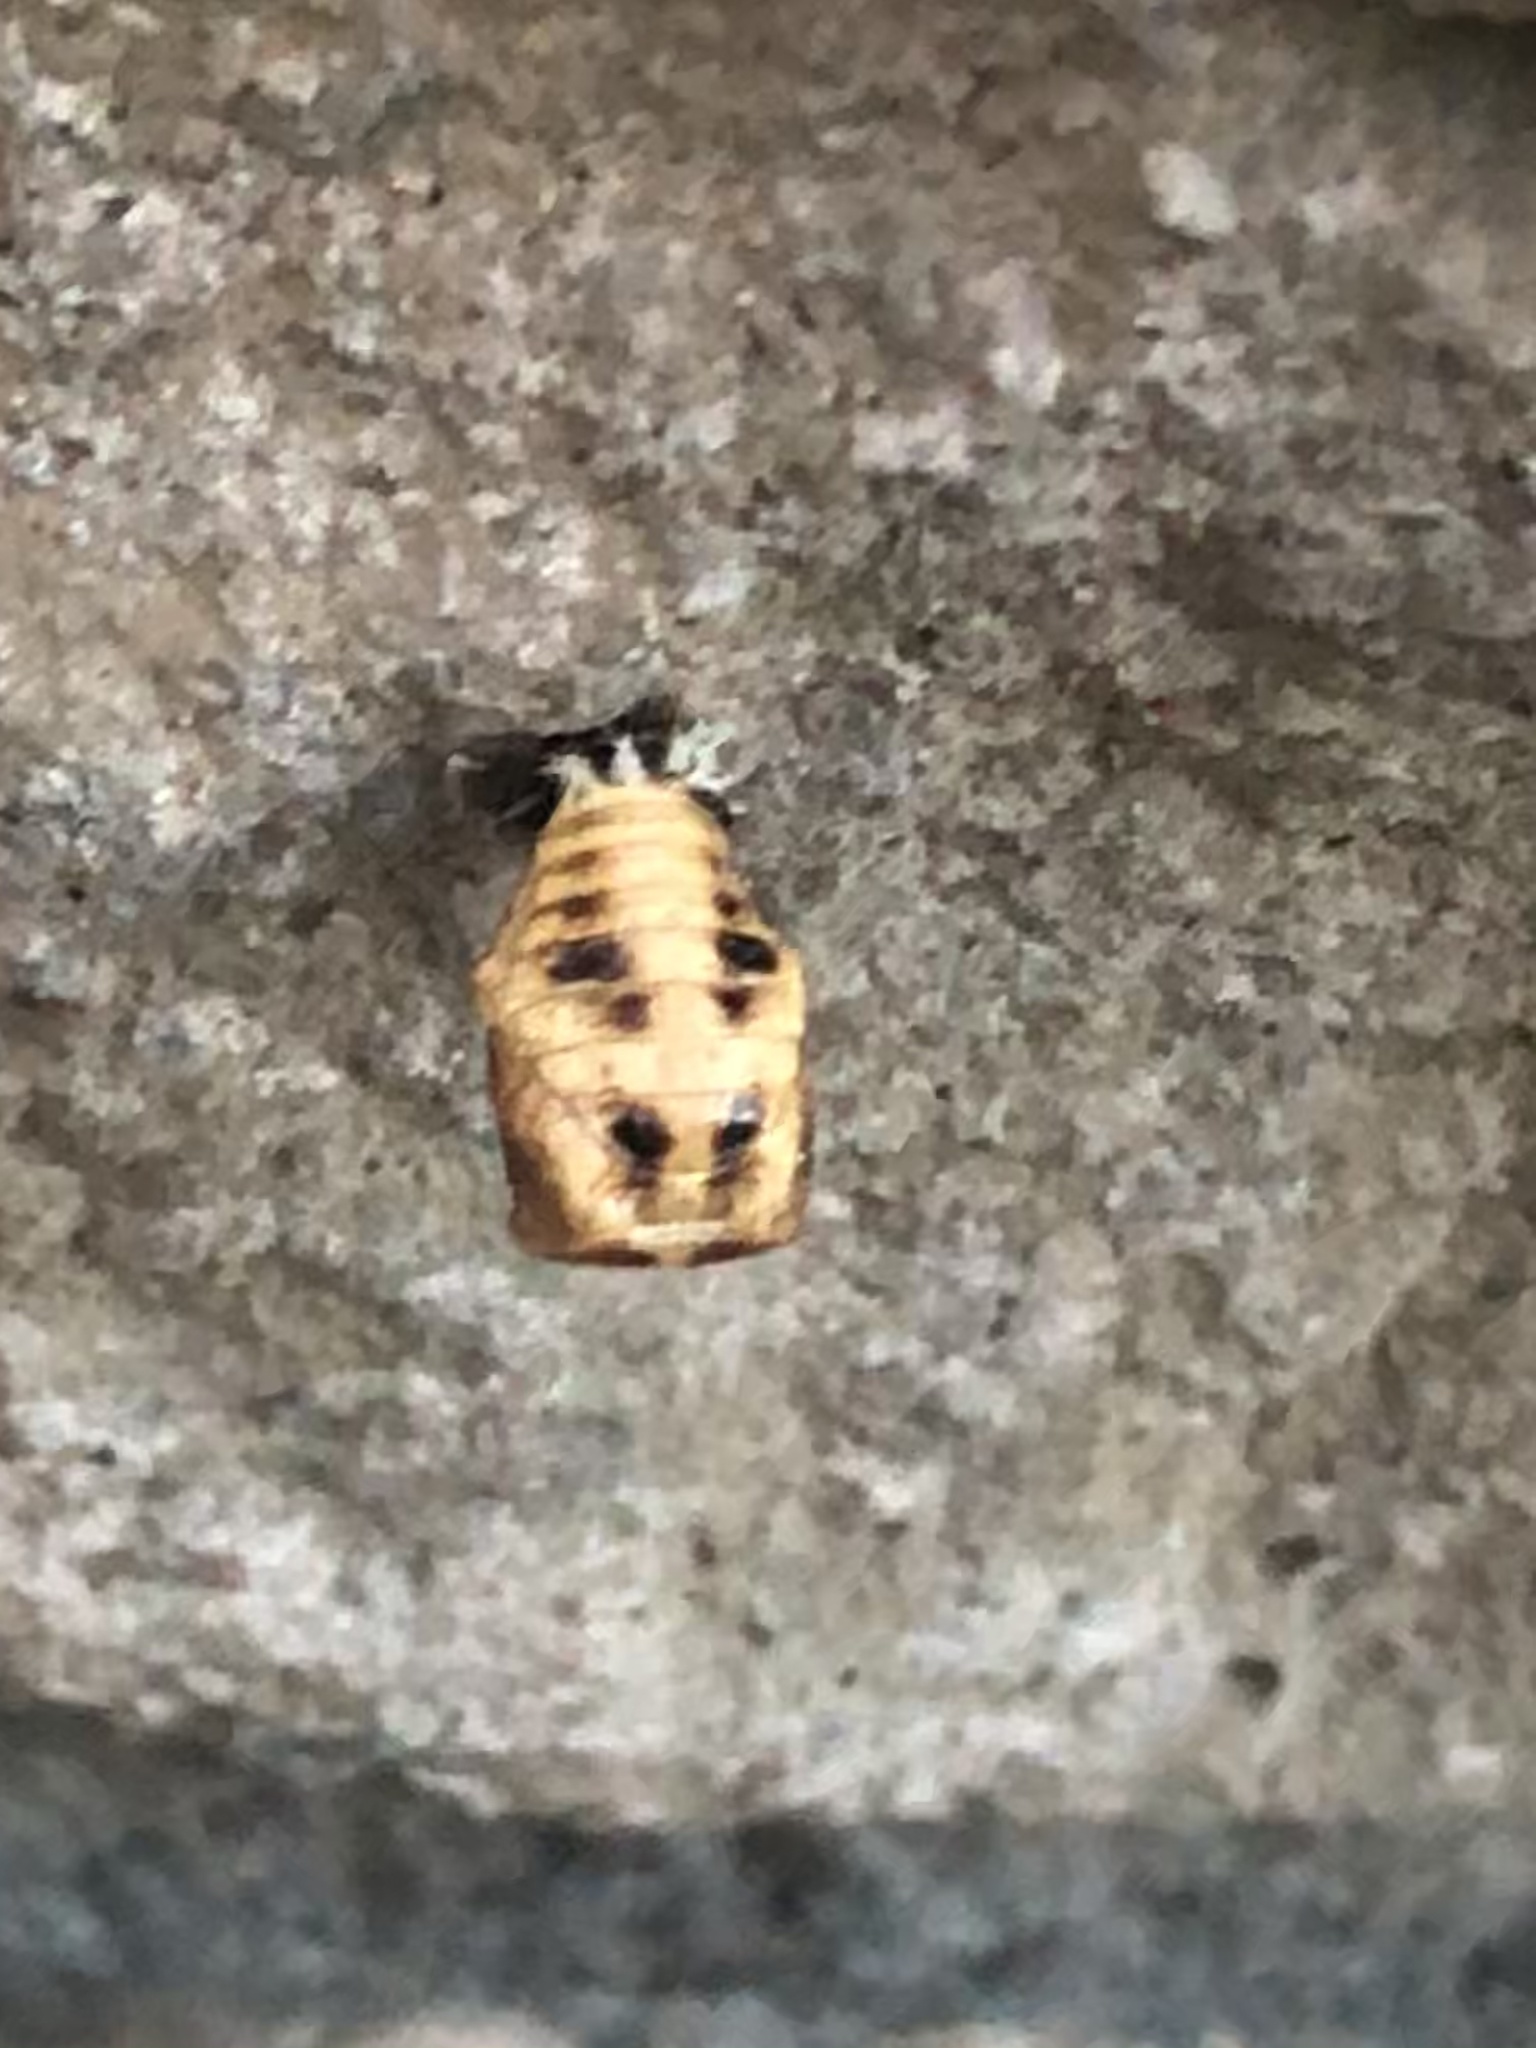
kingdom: Animalia
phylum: Arthropoda
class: Insecta
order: Coleoptera
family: Coccinellidae
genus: Harmonia
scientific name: Harmonia axyridis
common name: Harlequin ladybird
